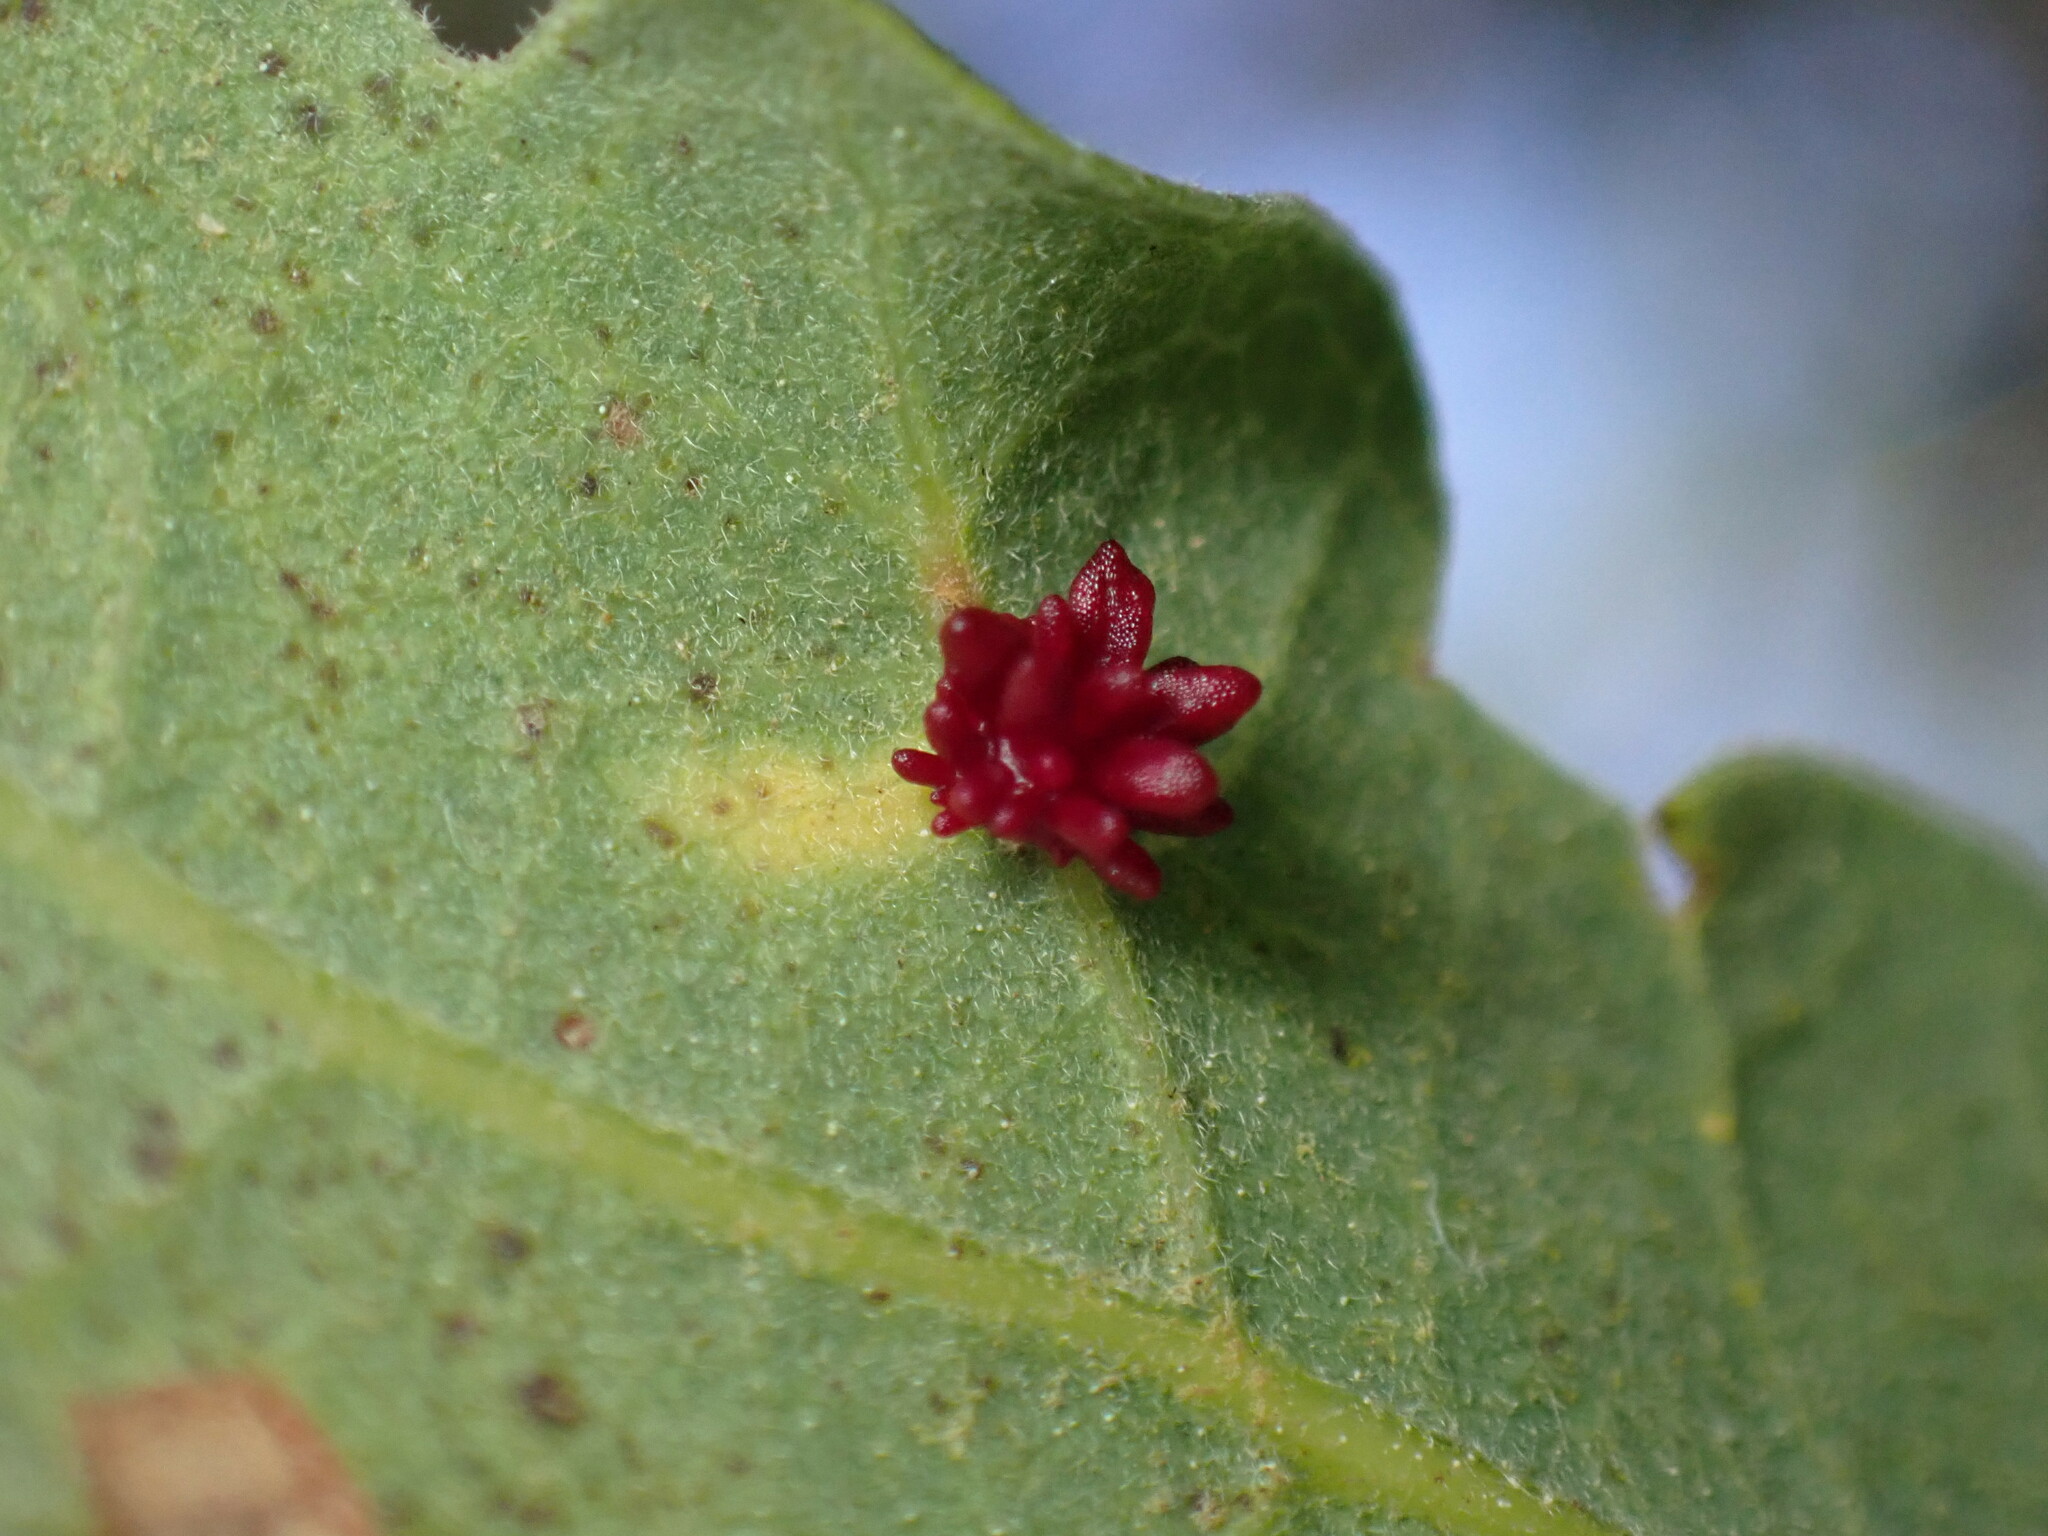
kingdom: Animalia
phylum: Arthropoda
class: Insecta
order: Hymenoptera
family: Cynipidae
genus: Cynips
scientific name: Cynips
